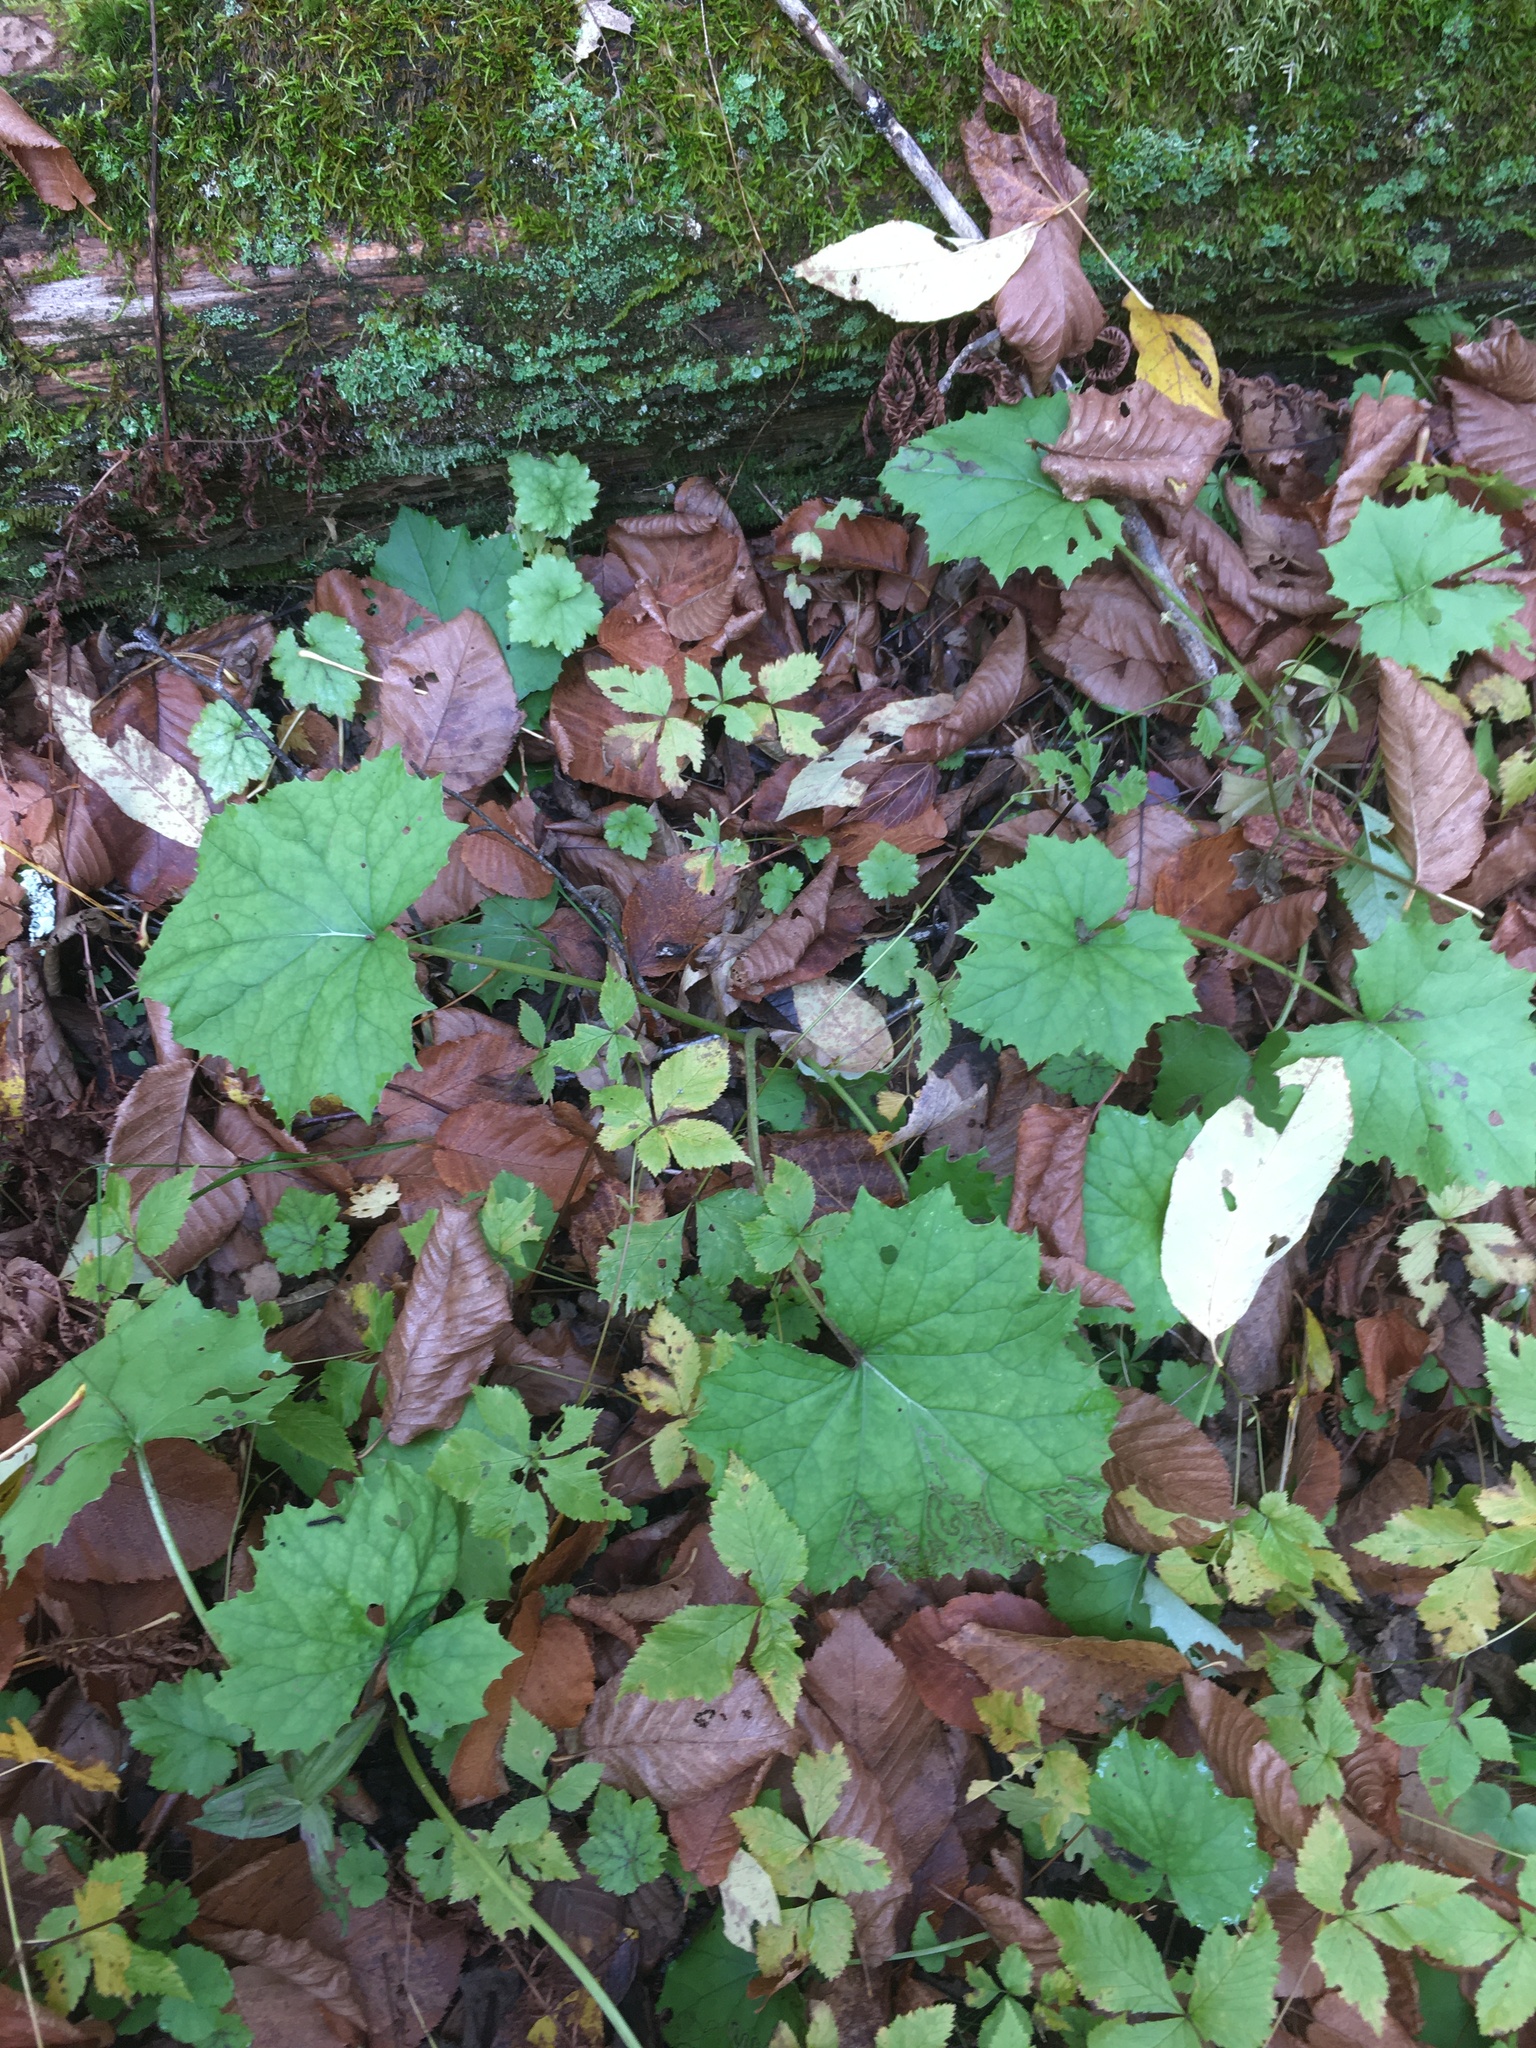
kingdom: Plantae
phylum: Tracheophyta
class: Magnoliopsida
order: Asterales
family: Asteraceae
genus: Tussilago
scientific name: Tussilago farfara
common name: Coltsfoot
